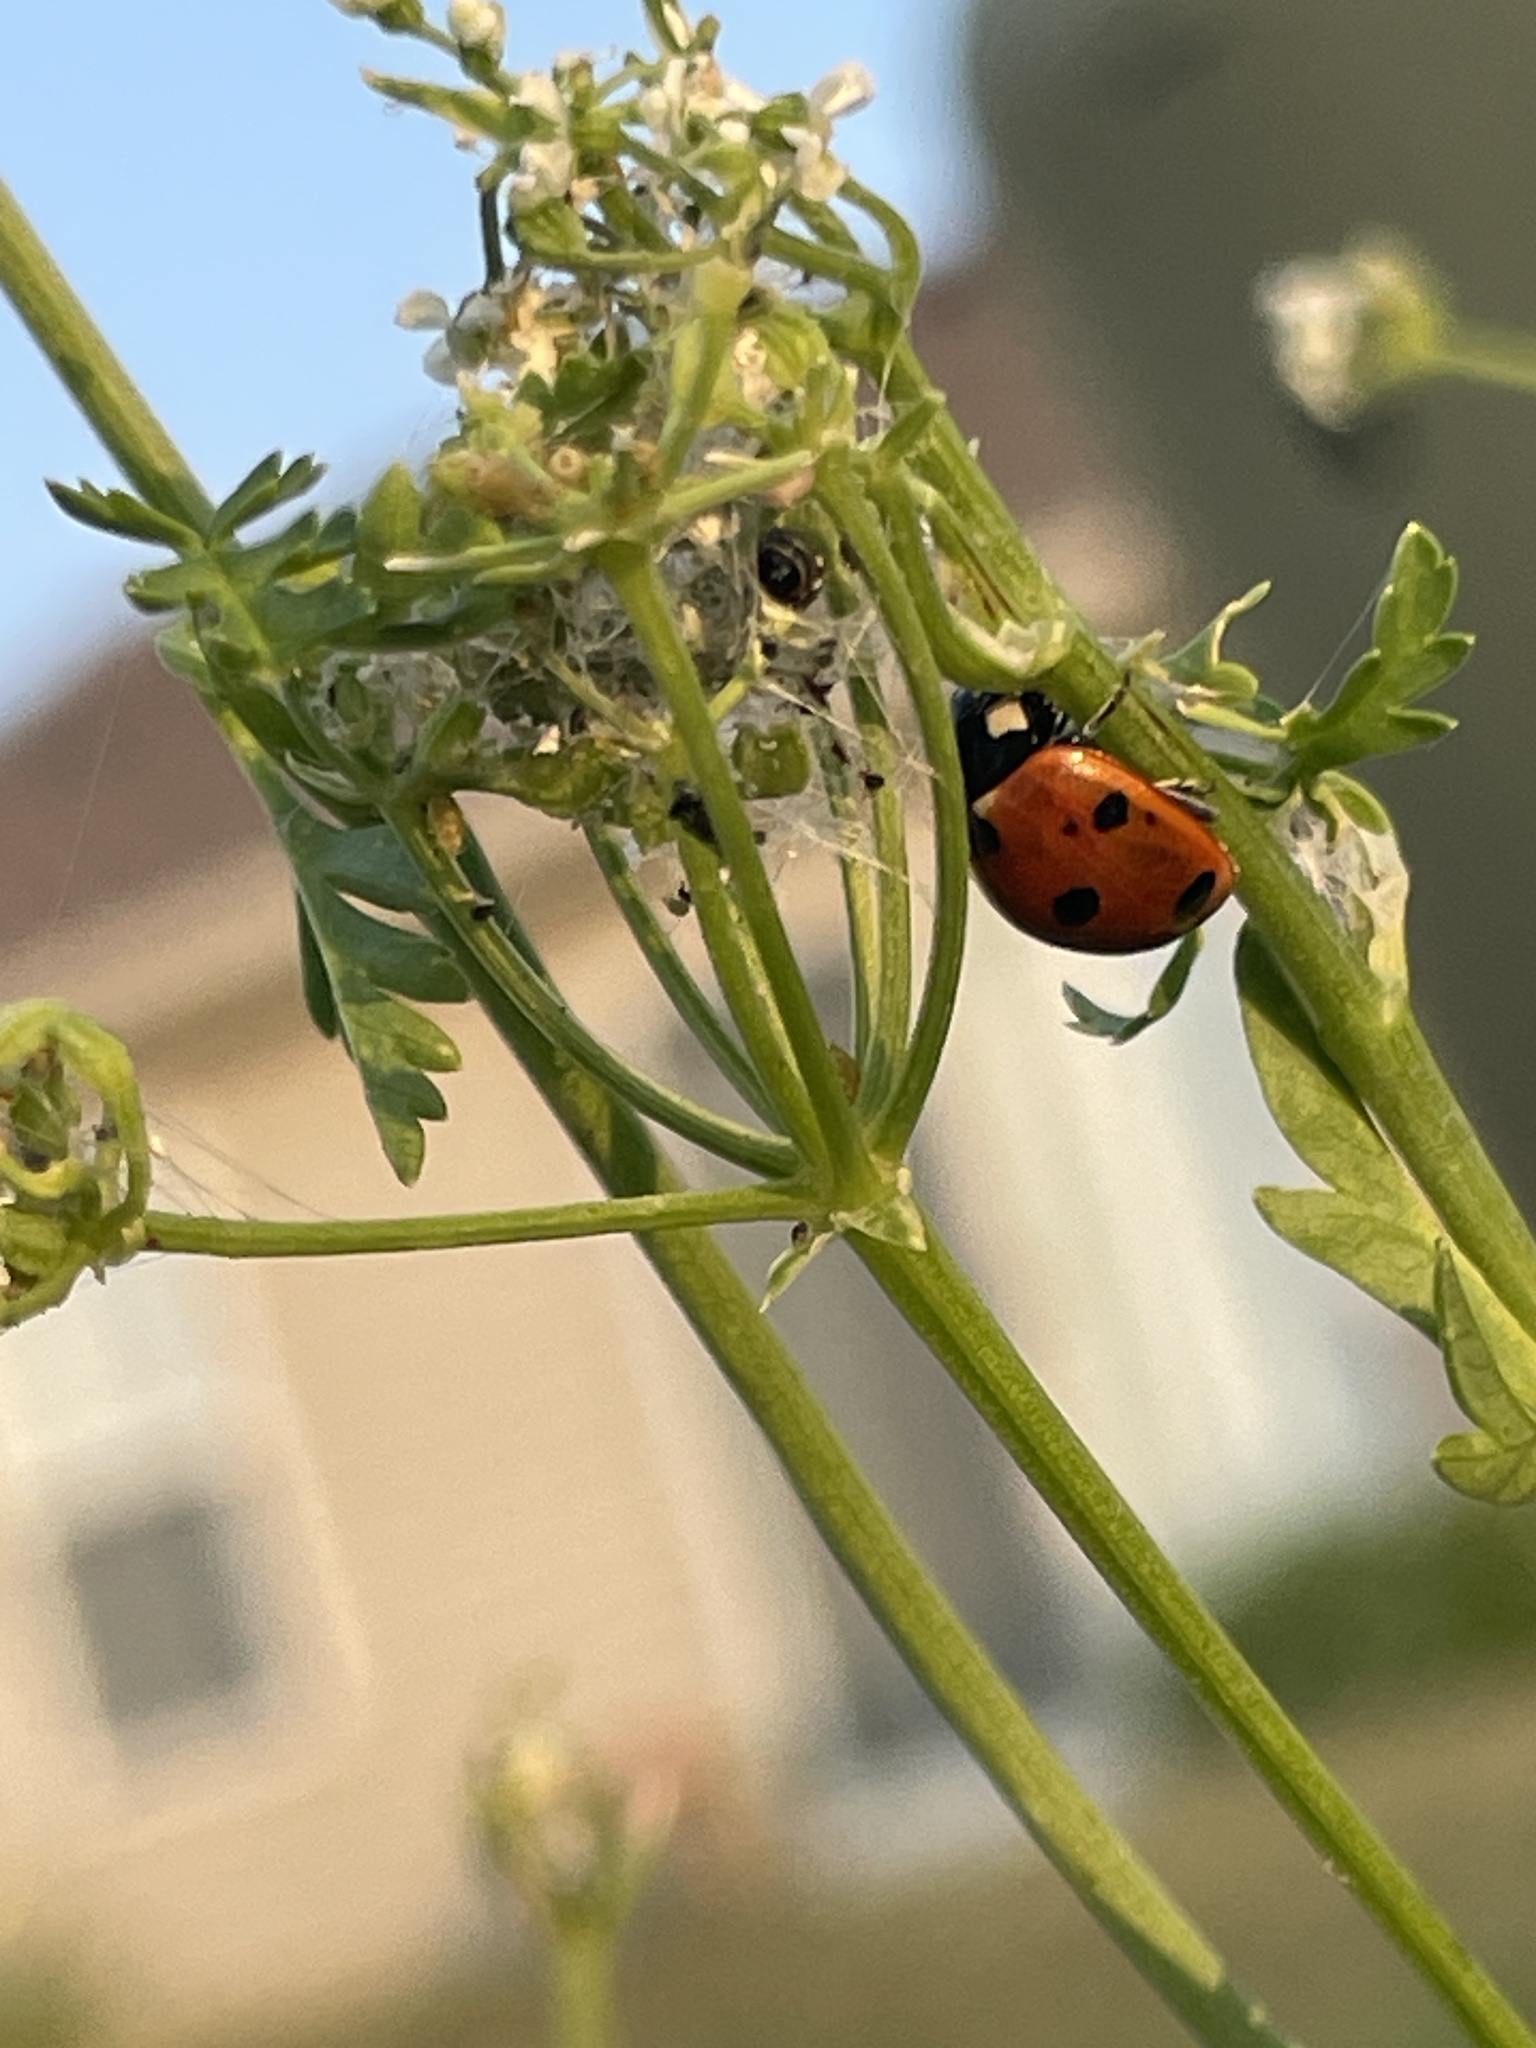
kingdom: Animalia
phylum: Arthropoda
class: Insecta
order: Coleoptera
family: Coccinellidae
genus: Coccinella
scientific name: Coccinella septempunctata
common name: Sevenspotted lady beetle
